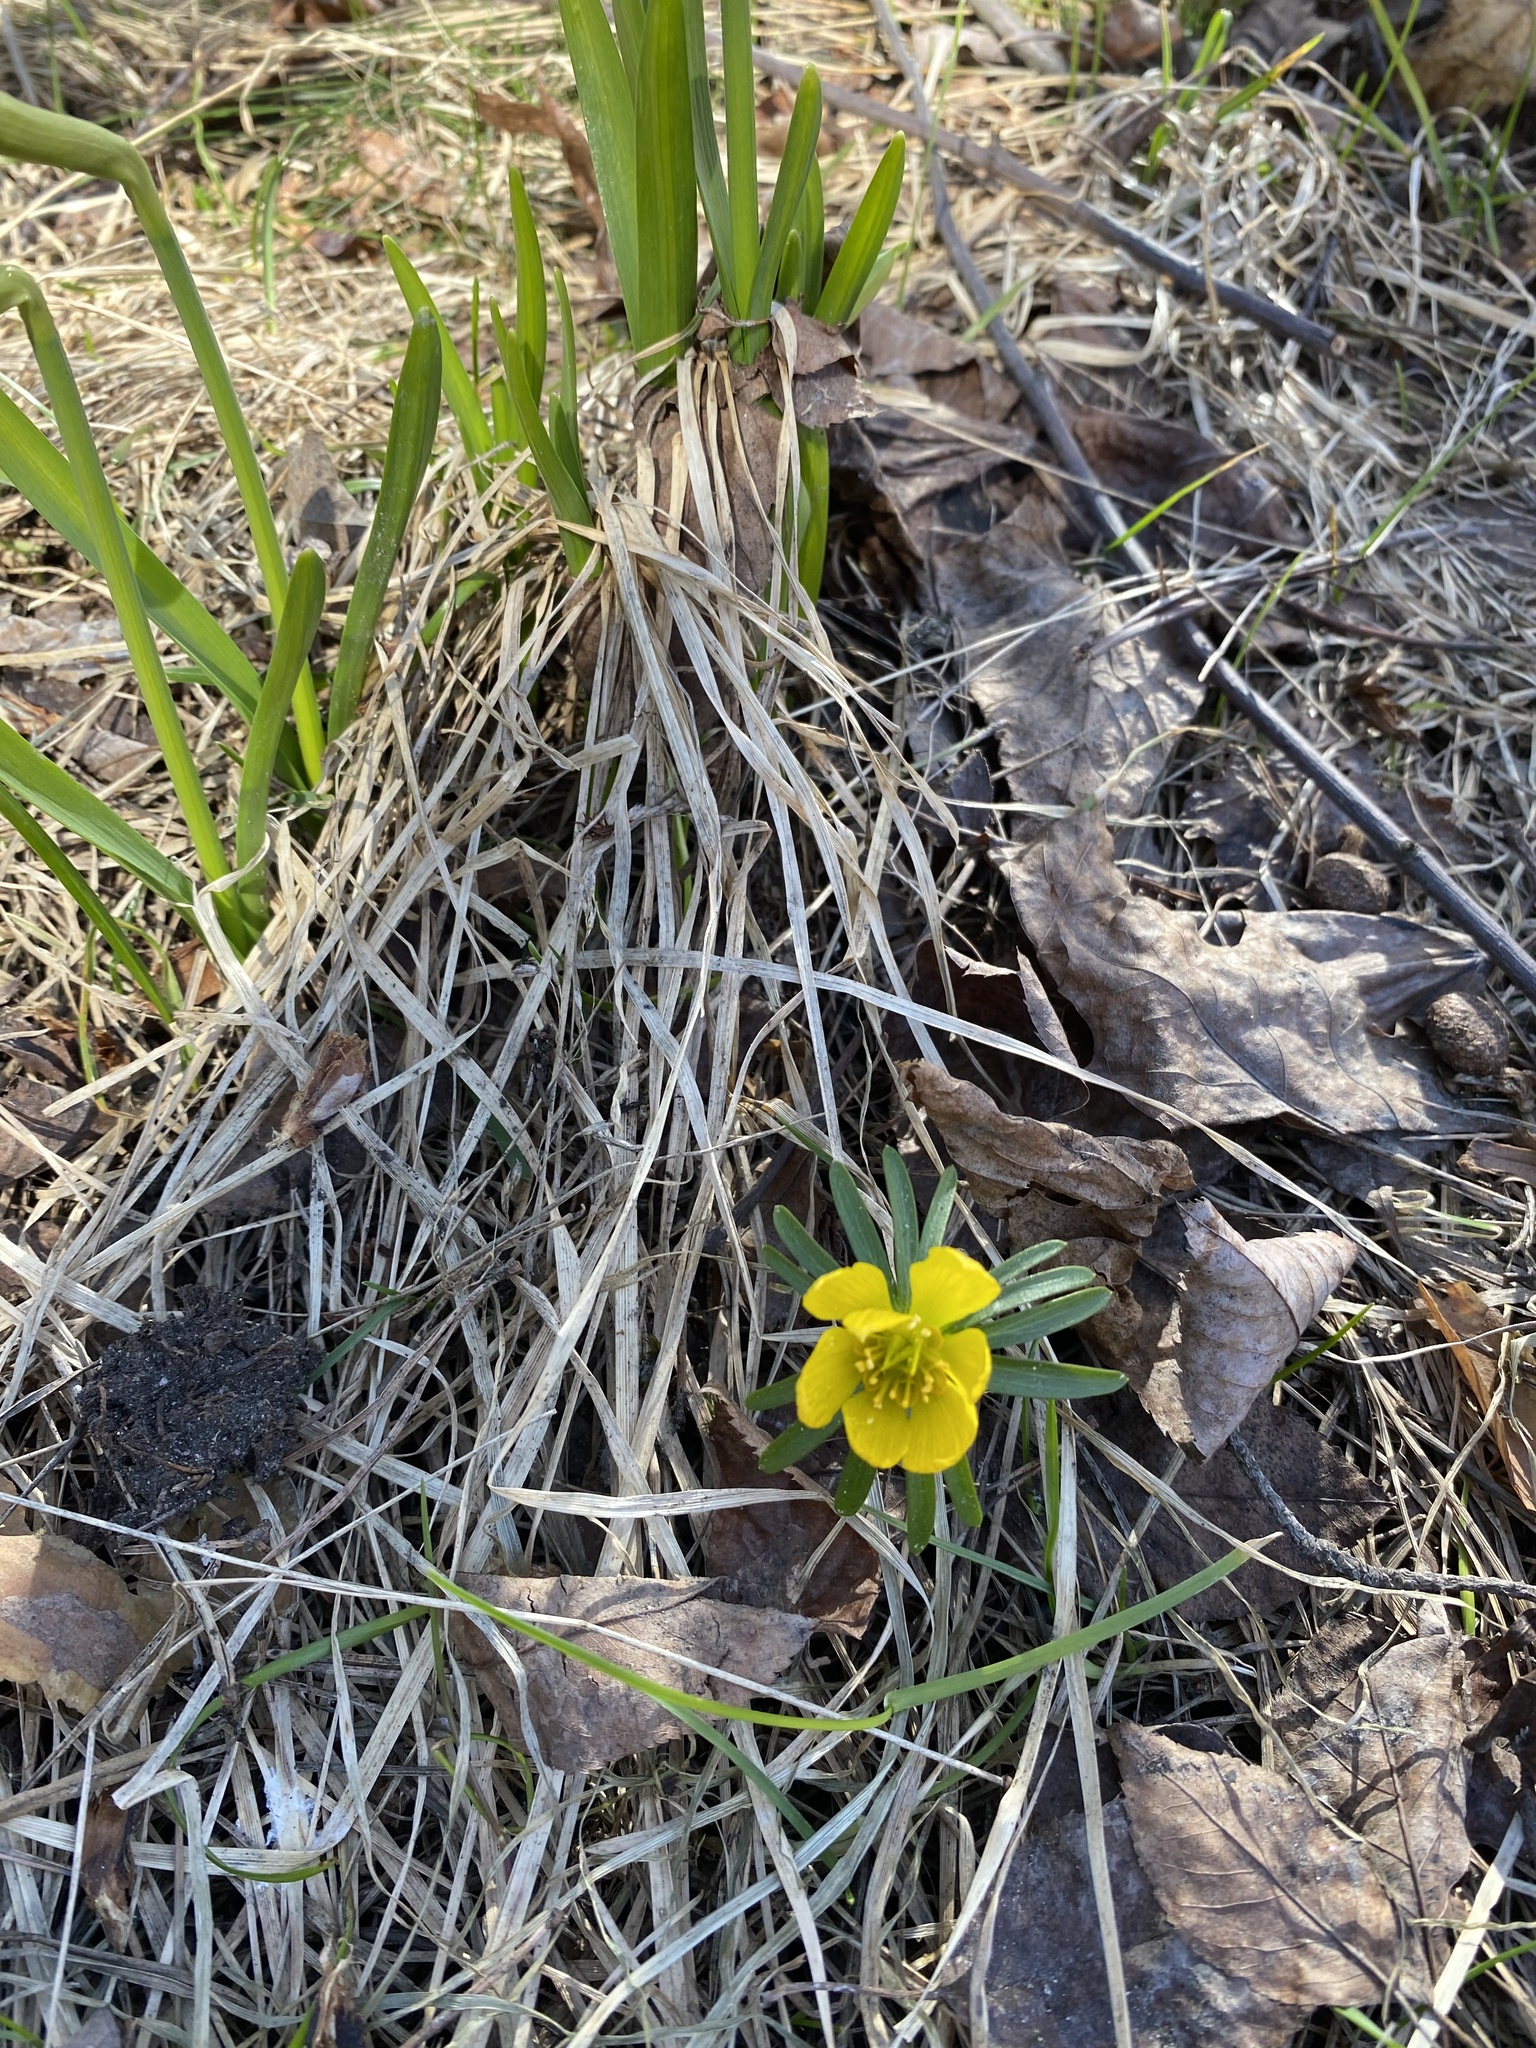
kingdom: Plantae
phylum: Tracheophyta
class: Magnoliopsida
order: Ranunculales
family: Ranunculaceae
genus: Eranthis
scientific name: Eranthis hyemalis
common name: Winter aconite
